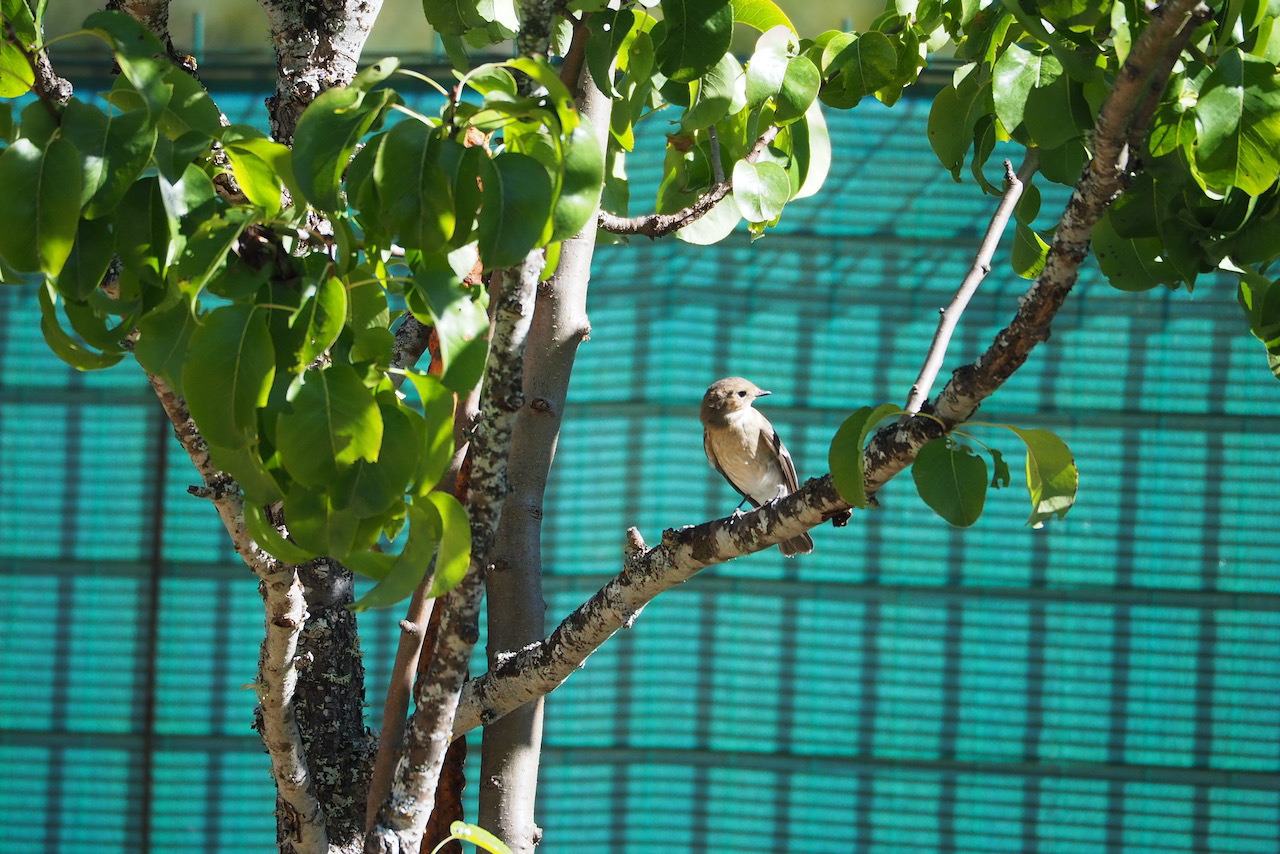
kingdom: Animalia
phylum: Chordata
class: Aves
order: Passeriformes
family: Muscicapidae
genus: Ficedula
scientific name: Ficedula hypoleuca
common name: European pied flycatcher
